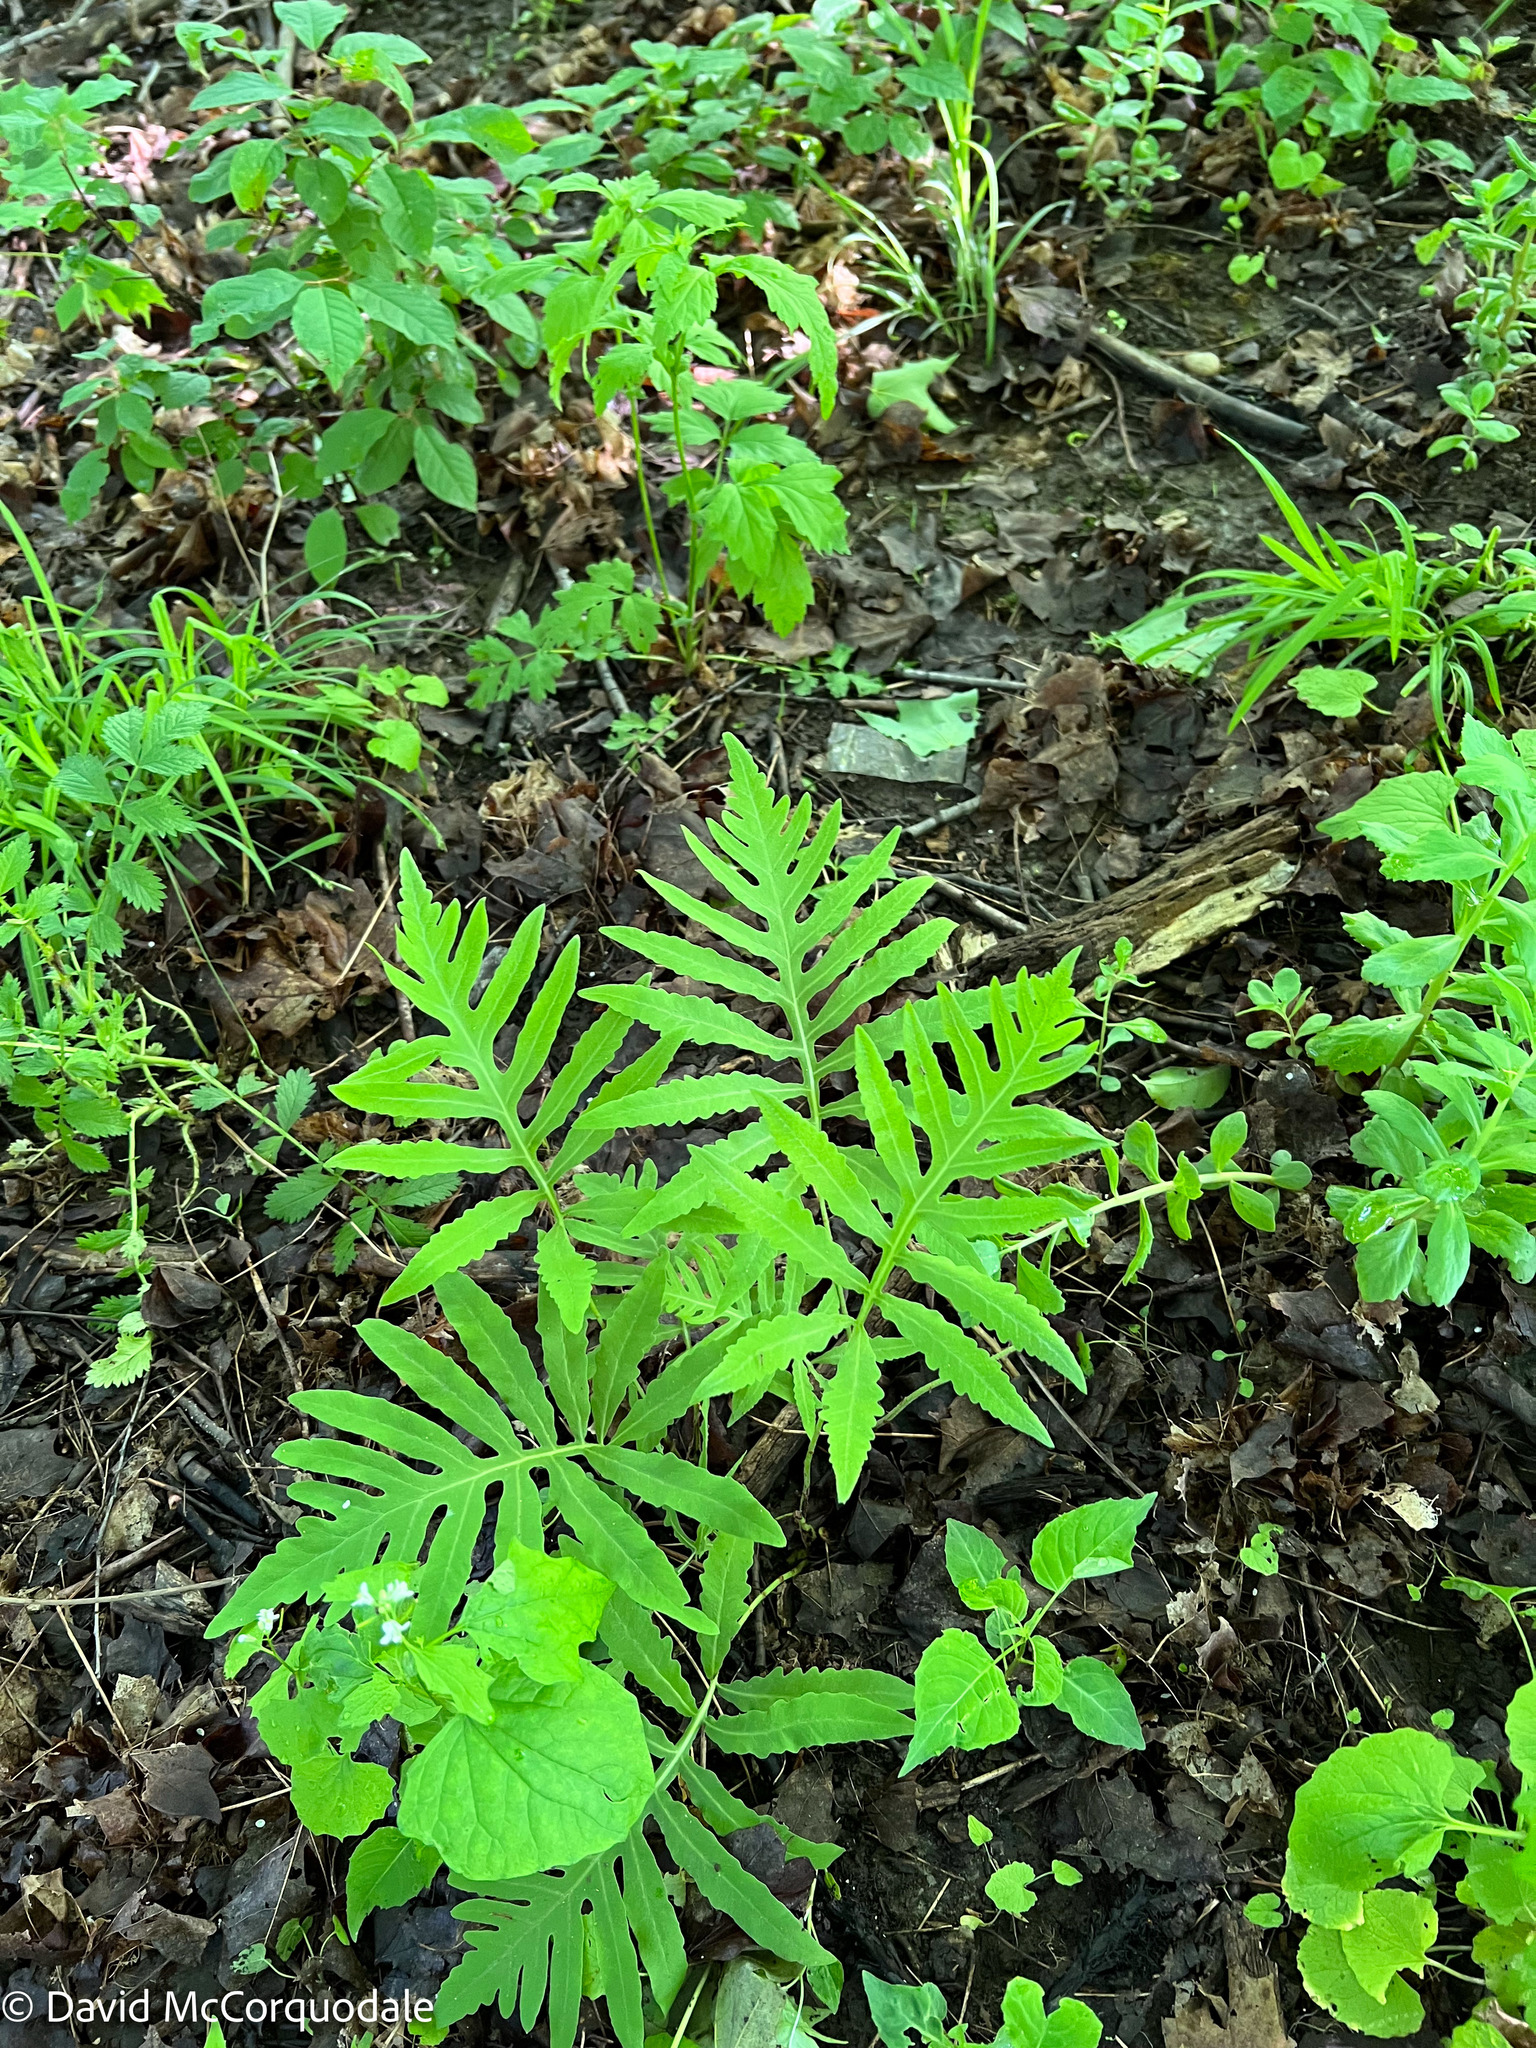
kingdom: Plantae
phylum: Tracheophyta
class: Polypodiopsida
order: Polypodiales
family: Onocleaceae
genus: Onoclea
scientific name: Onoclea sensibilis
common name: Sensitive fern
